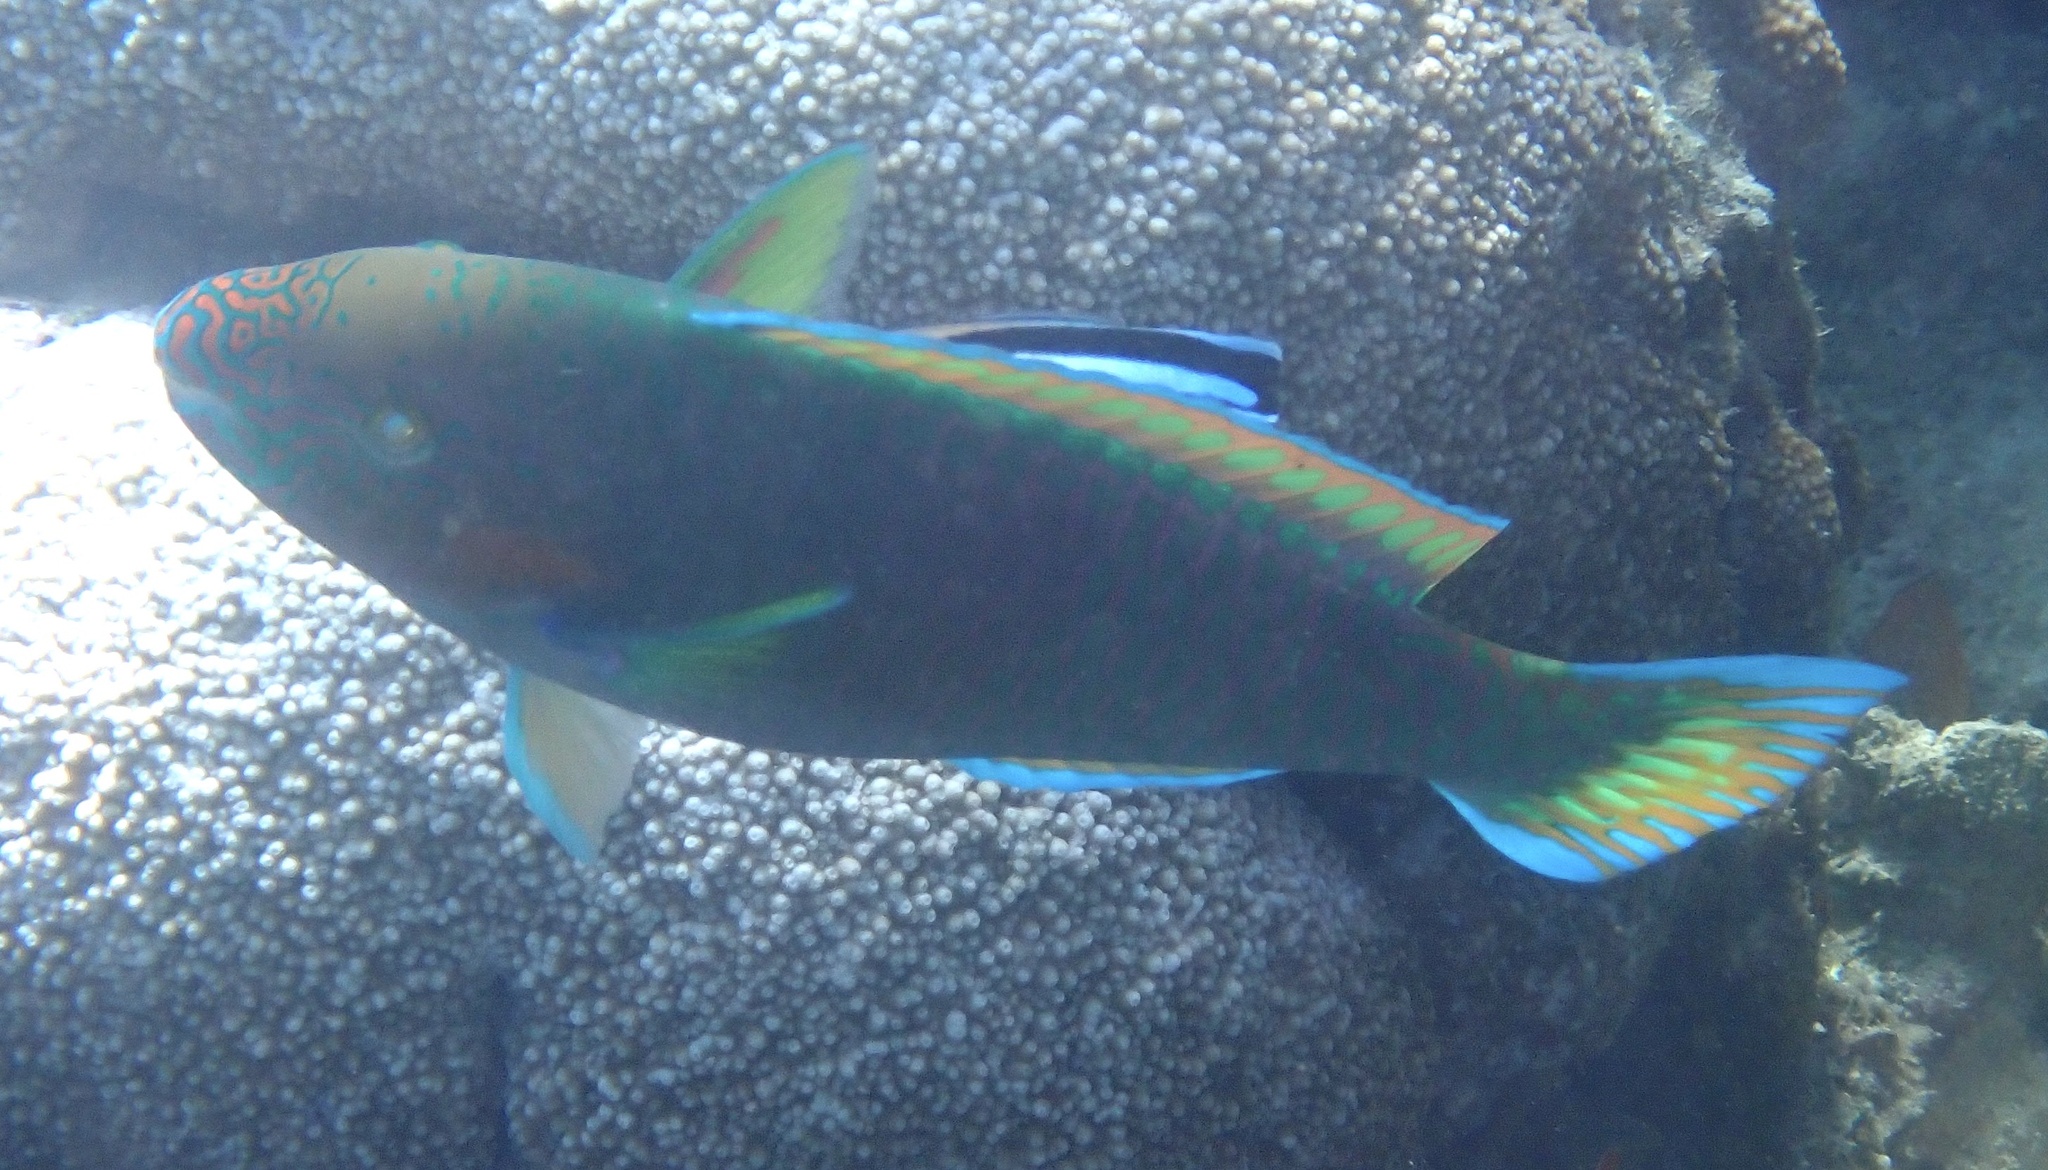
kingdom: Animalia
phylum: Chordata
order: Perciformes
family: Scaridae
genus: Scarus
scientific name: Scarus rivulatus
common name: Surf parrotfish
